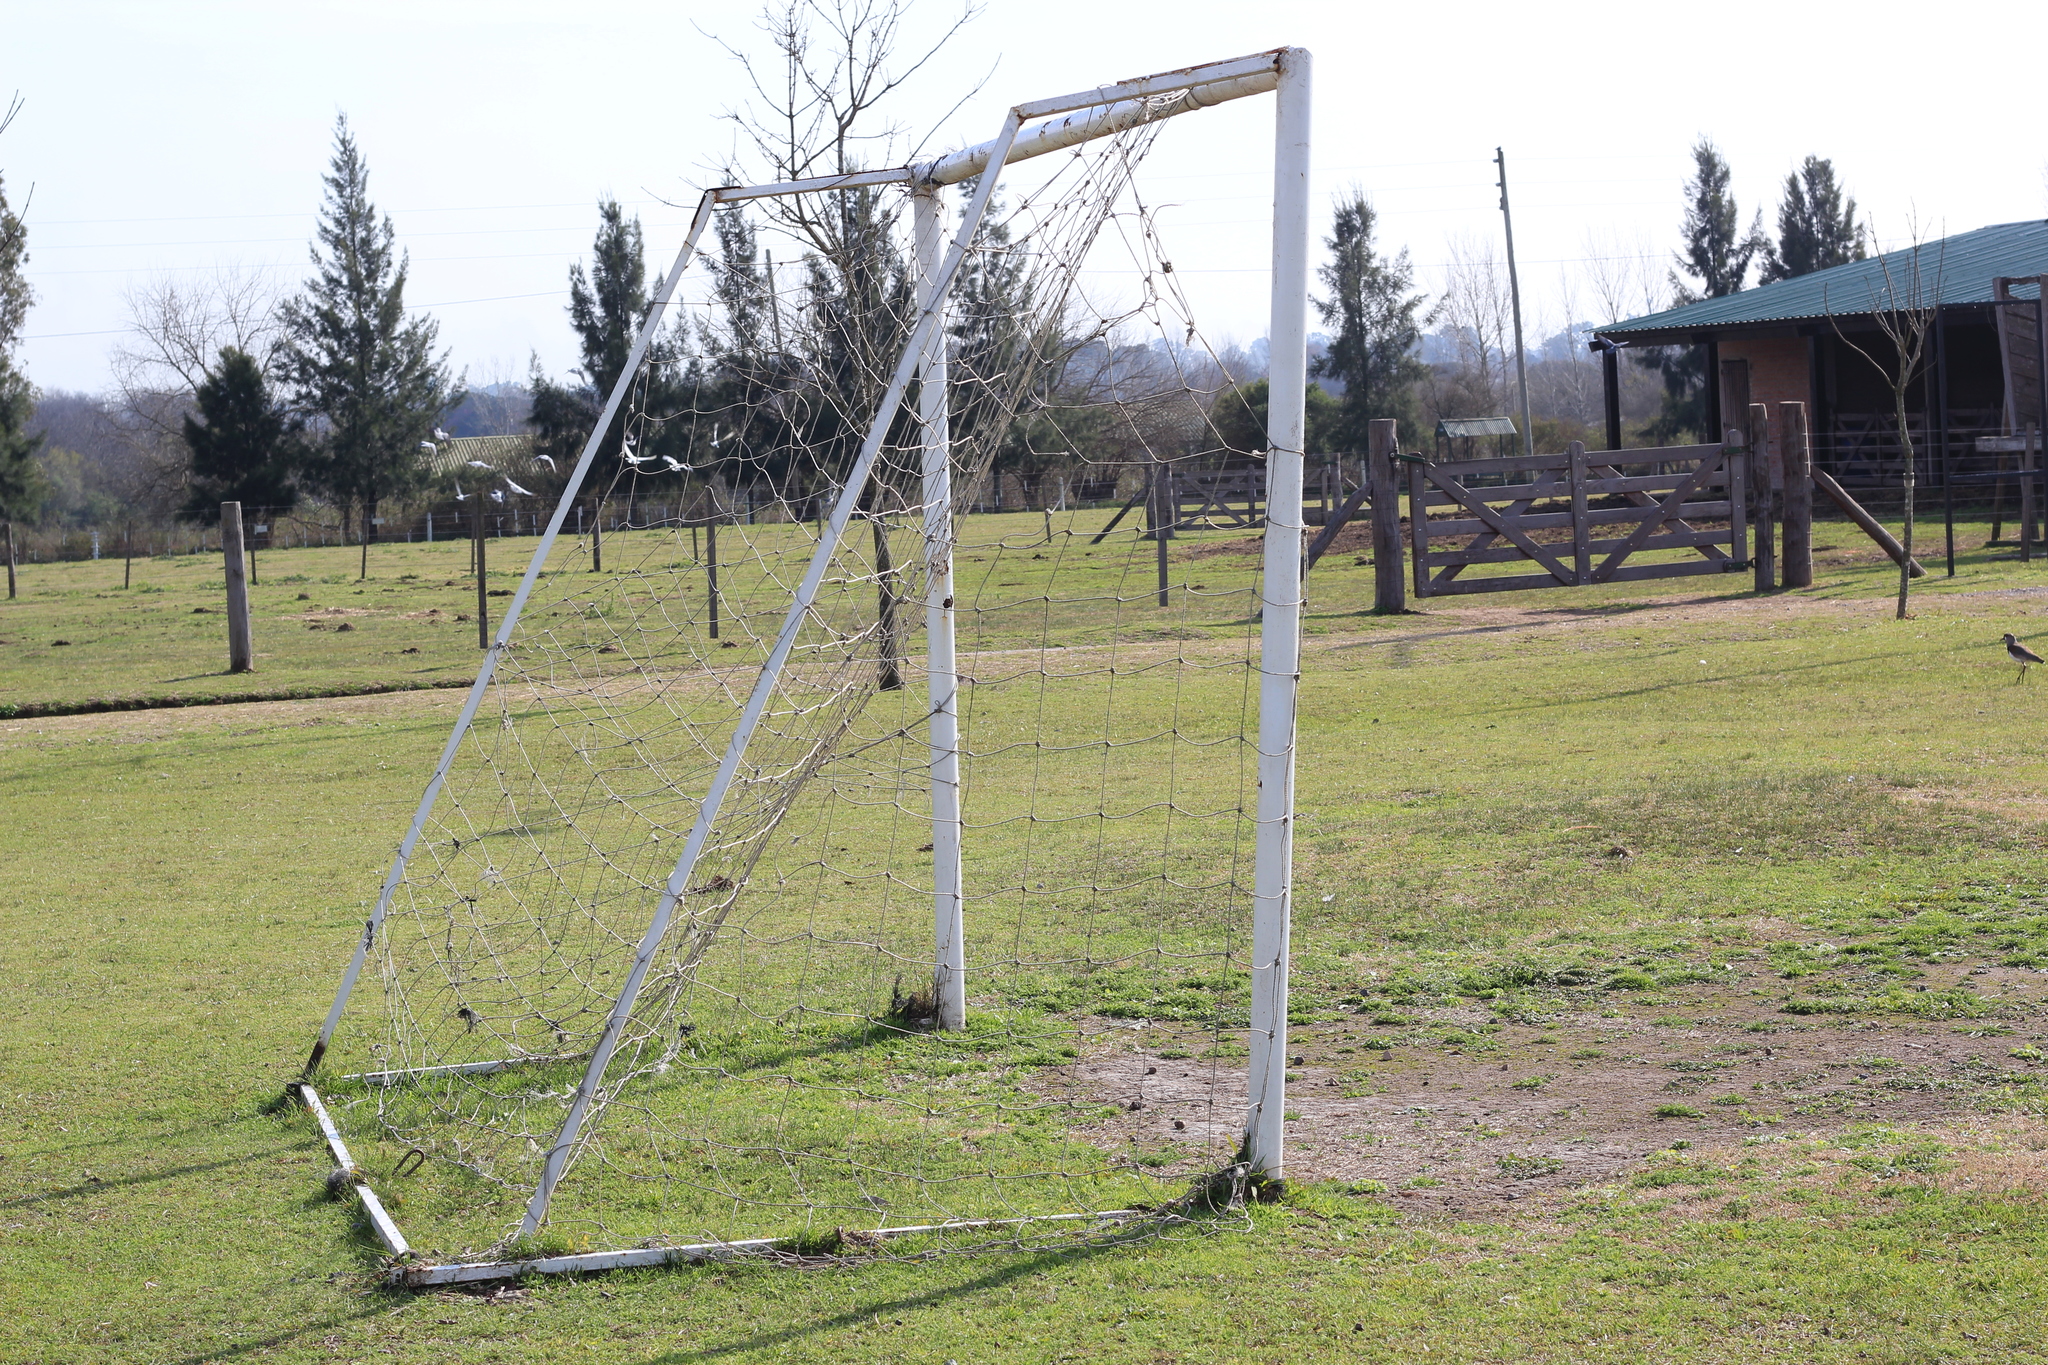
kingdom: Animalia
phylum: Chordata
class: Aves
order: Charadriiformes
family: Charadriidae
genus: Vanellus
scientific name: Vanellus chilensis
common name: Southern lapwing
